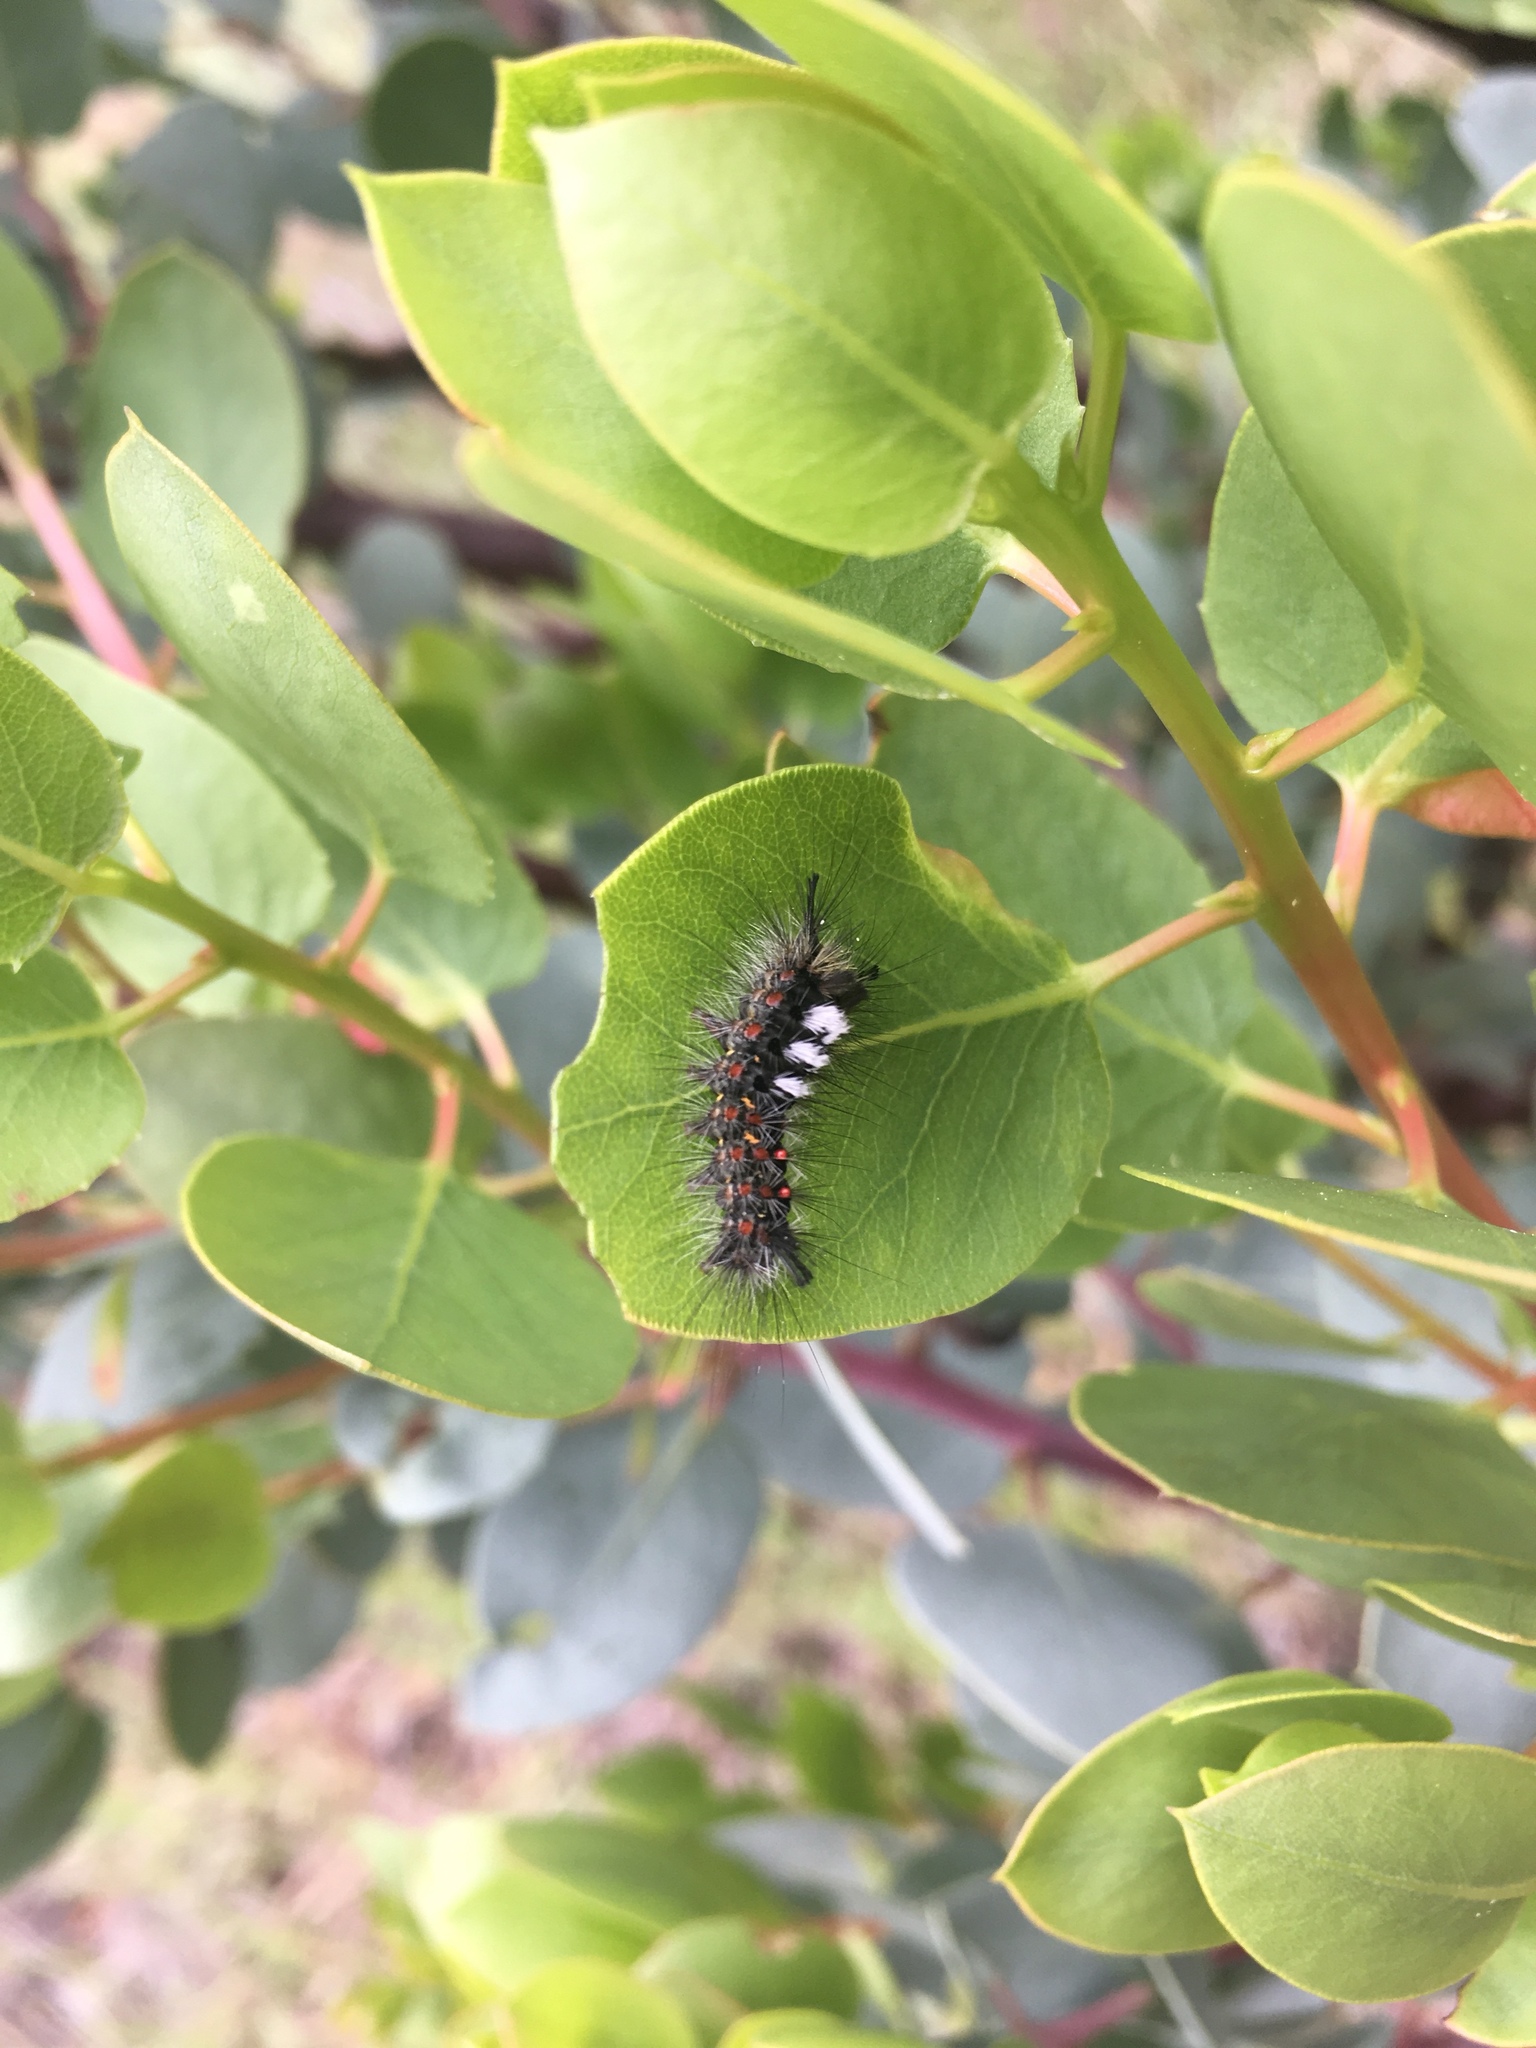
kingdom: Animalia
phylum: Arthropoda
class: Insecta
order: Lepidoptera
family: Erebidae
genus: Orgyia
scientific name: Orgyia vetusta
